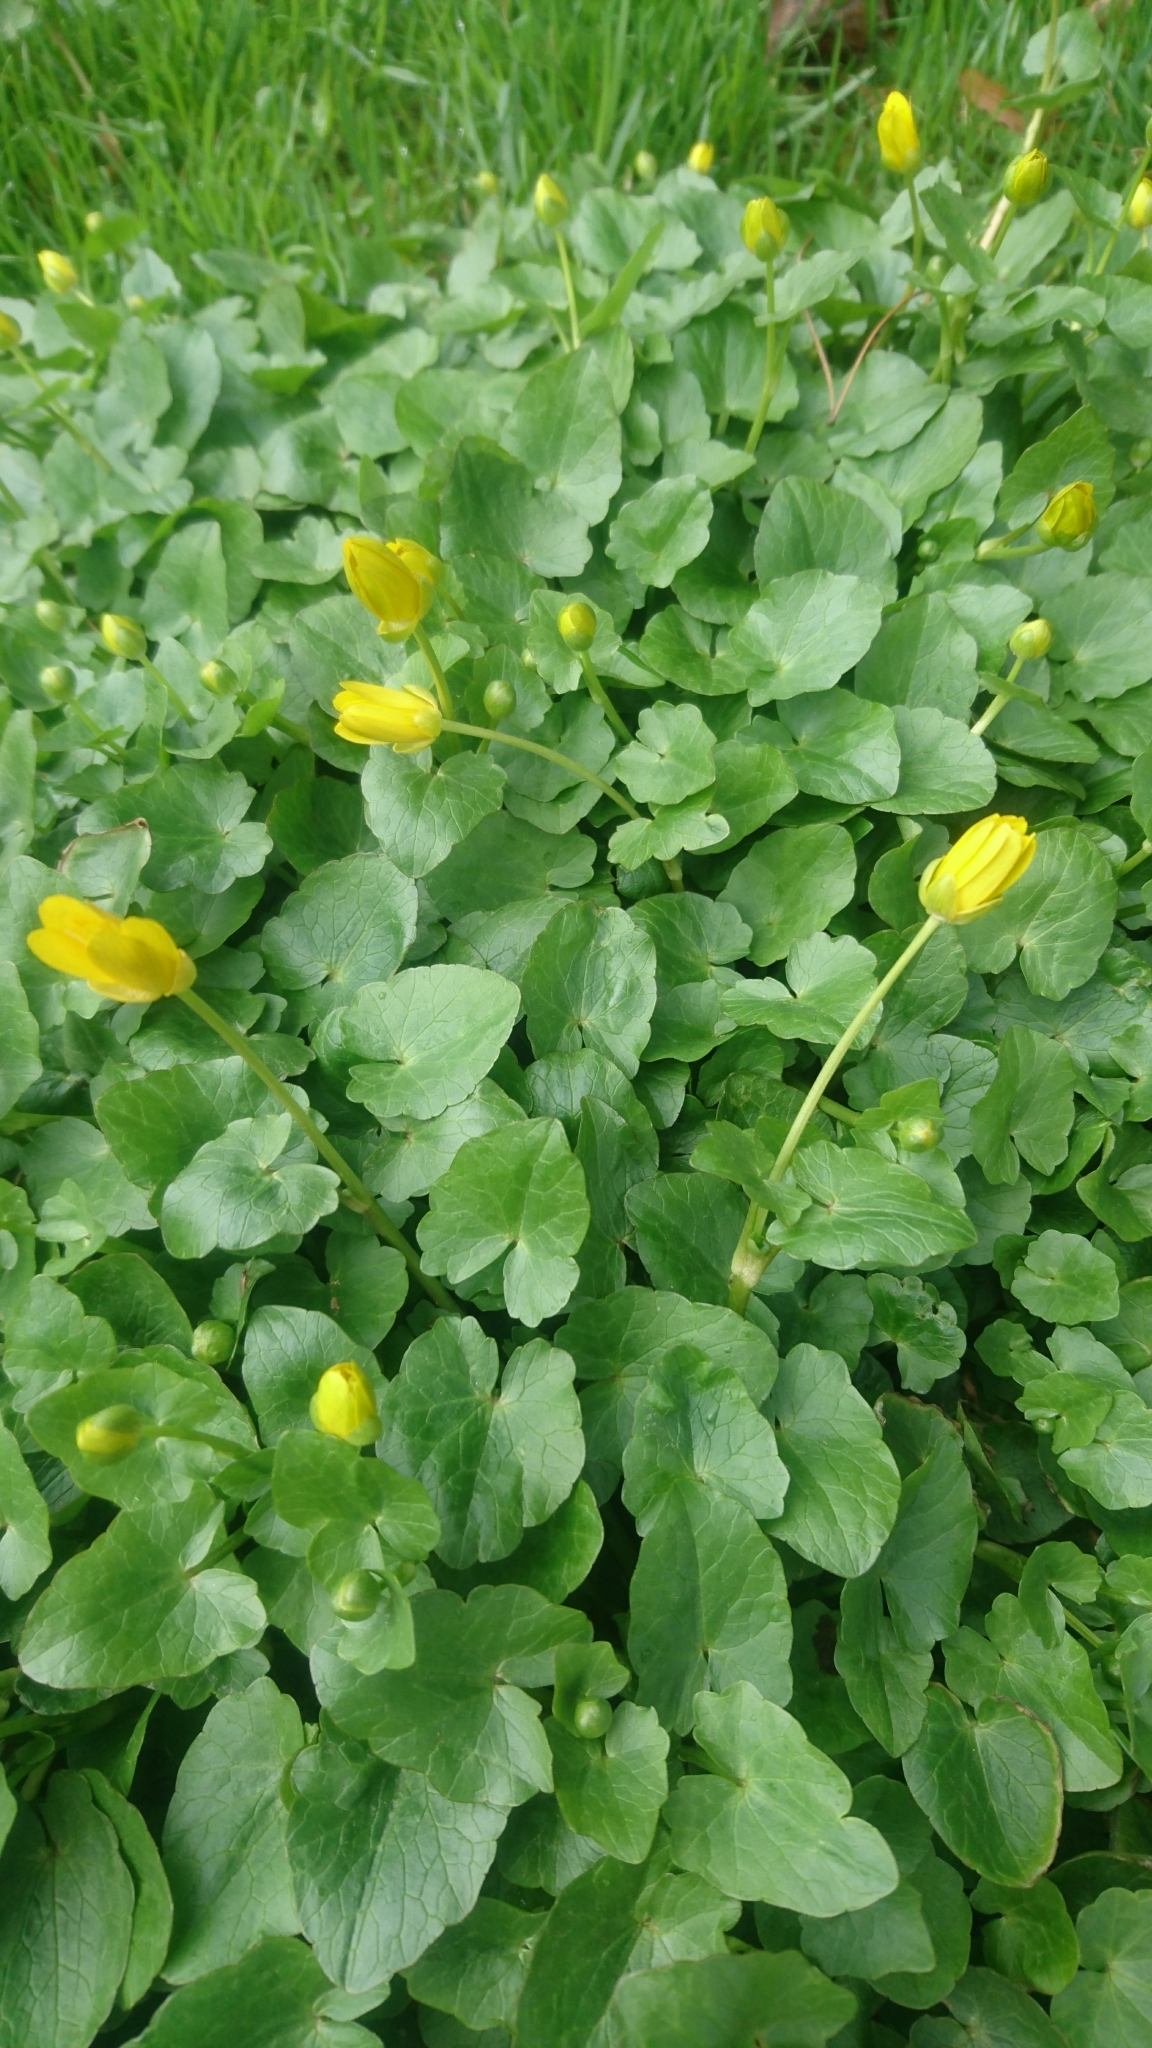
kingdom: Plantae
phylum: Tracheophyta
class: Magnoliopsida
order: Ranunculales
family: Ranunculaceae
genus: Ficaria
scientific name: Ficaria verna
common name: Lesser celandine
